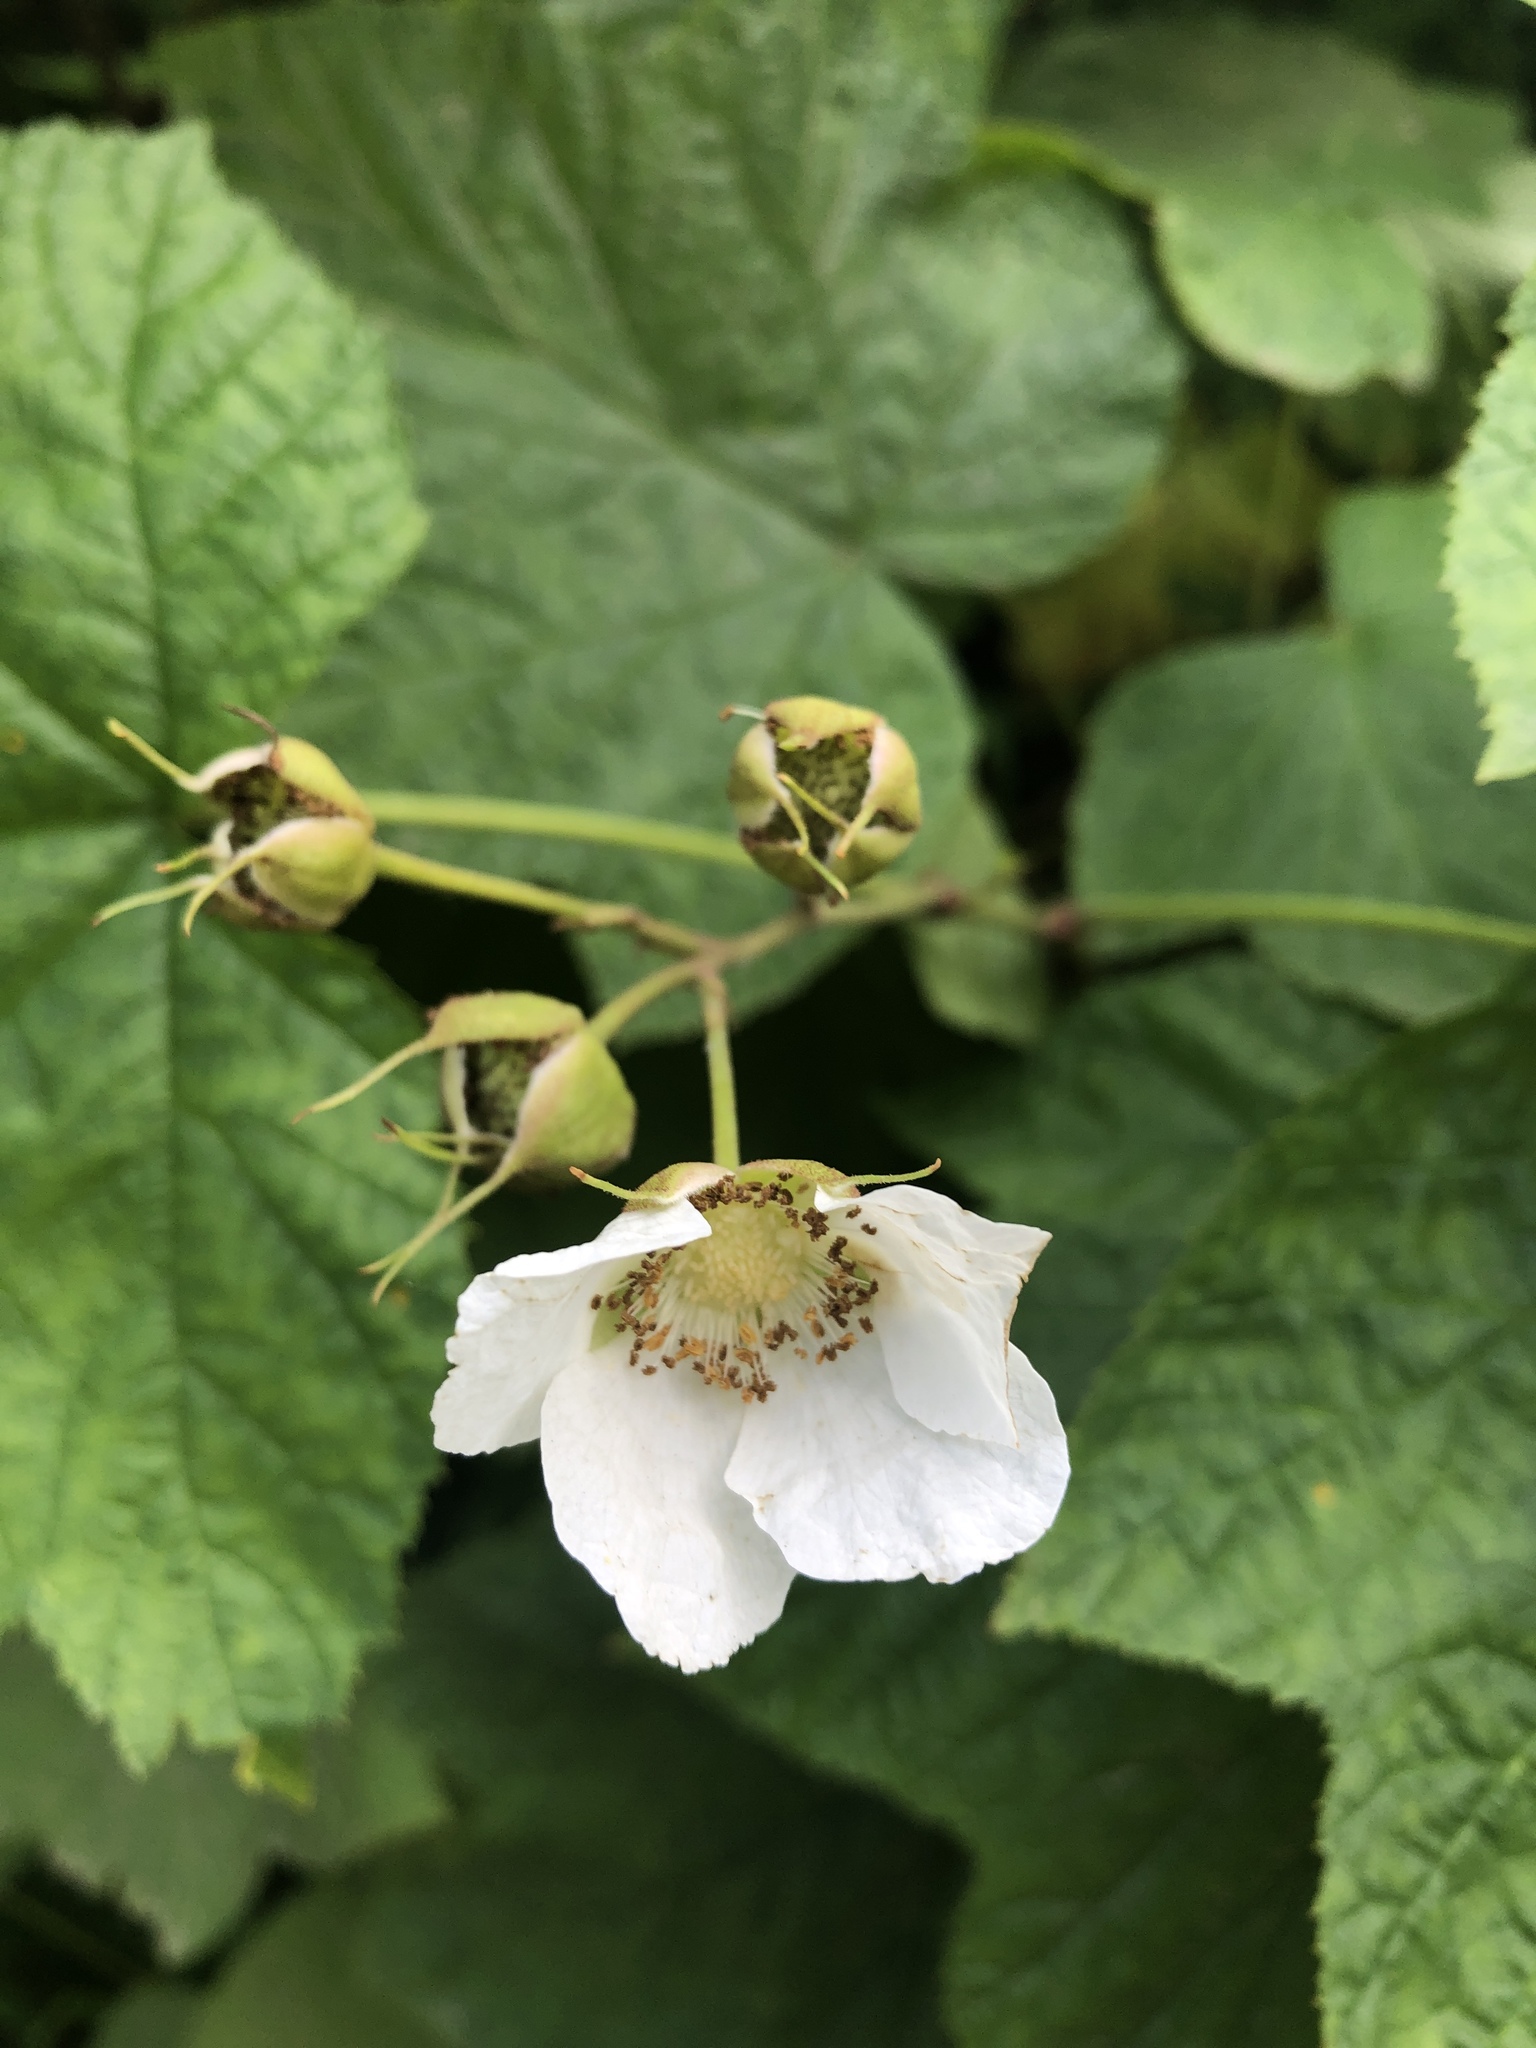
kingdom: Plantae
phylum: Tracheophyta
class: Magnoliopsida
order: Rosales
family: Rosaceae
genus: Rubus
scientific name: Rubus parviflorus
